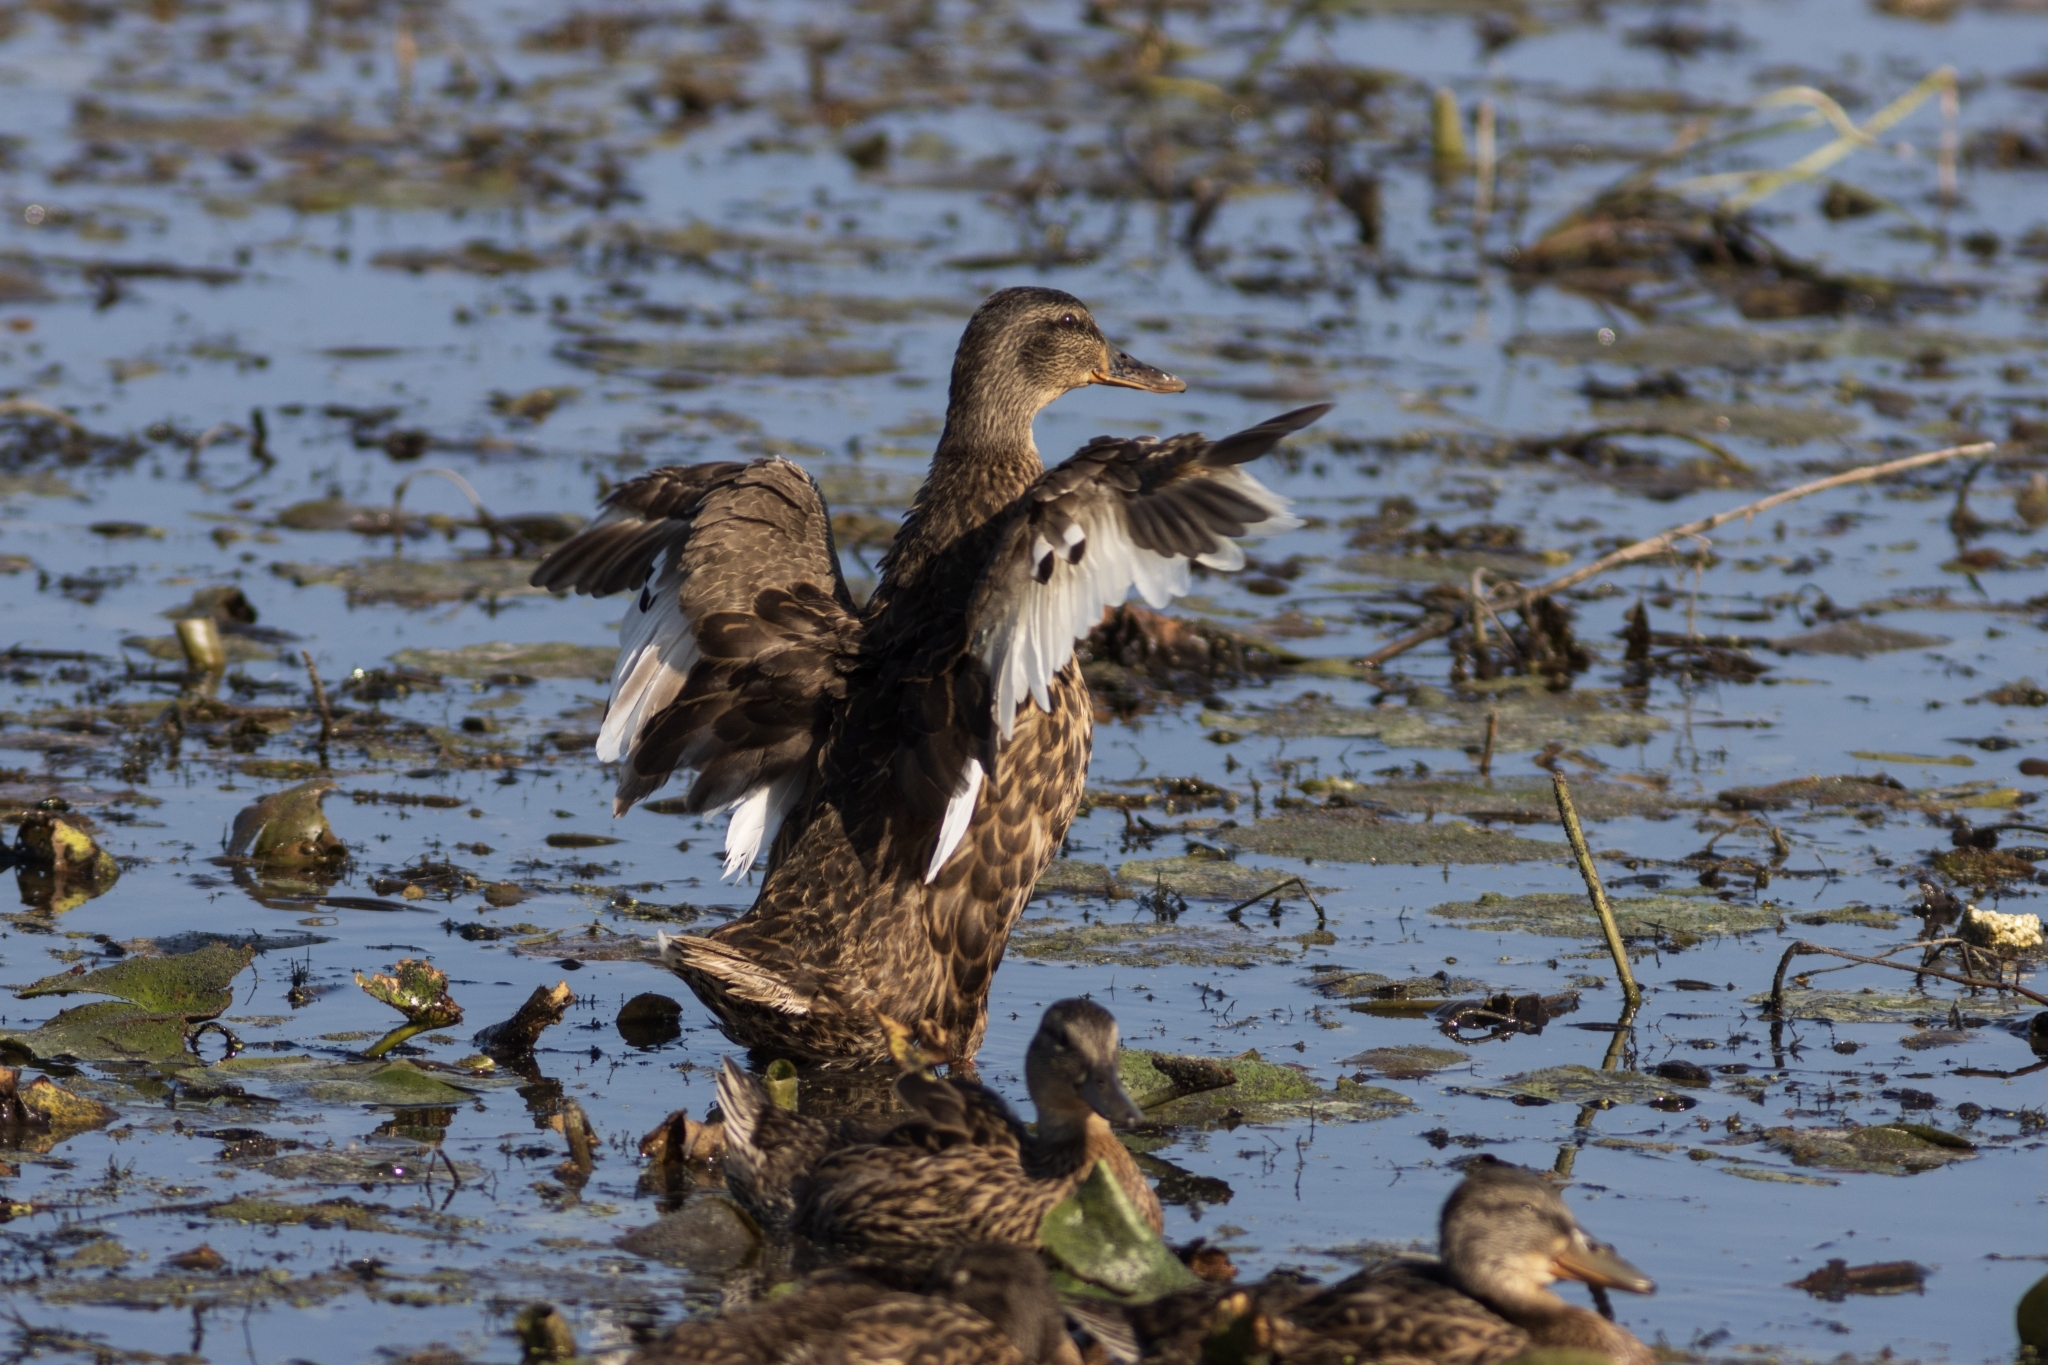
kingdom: Animalia
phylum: Chordata
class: Aves
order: Anseriformes
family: Anatidae
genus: Anas
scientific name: Anas platyrhynchos
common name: Mallard
